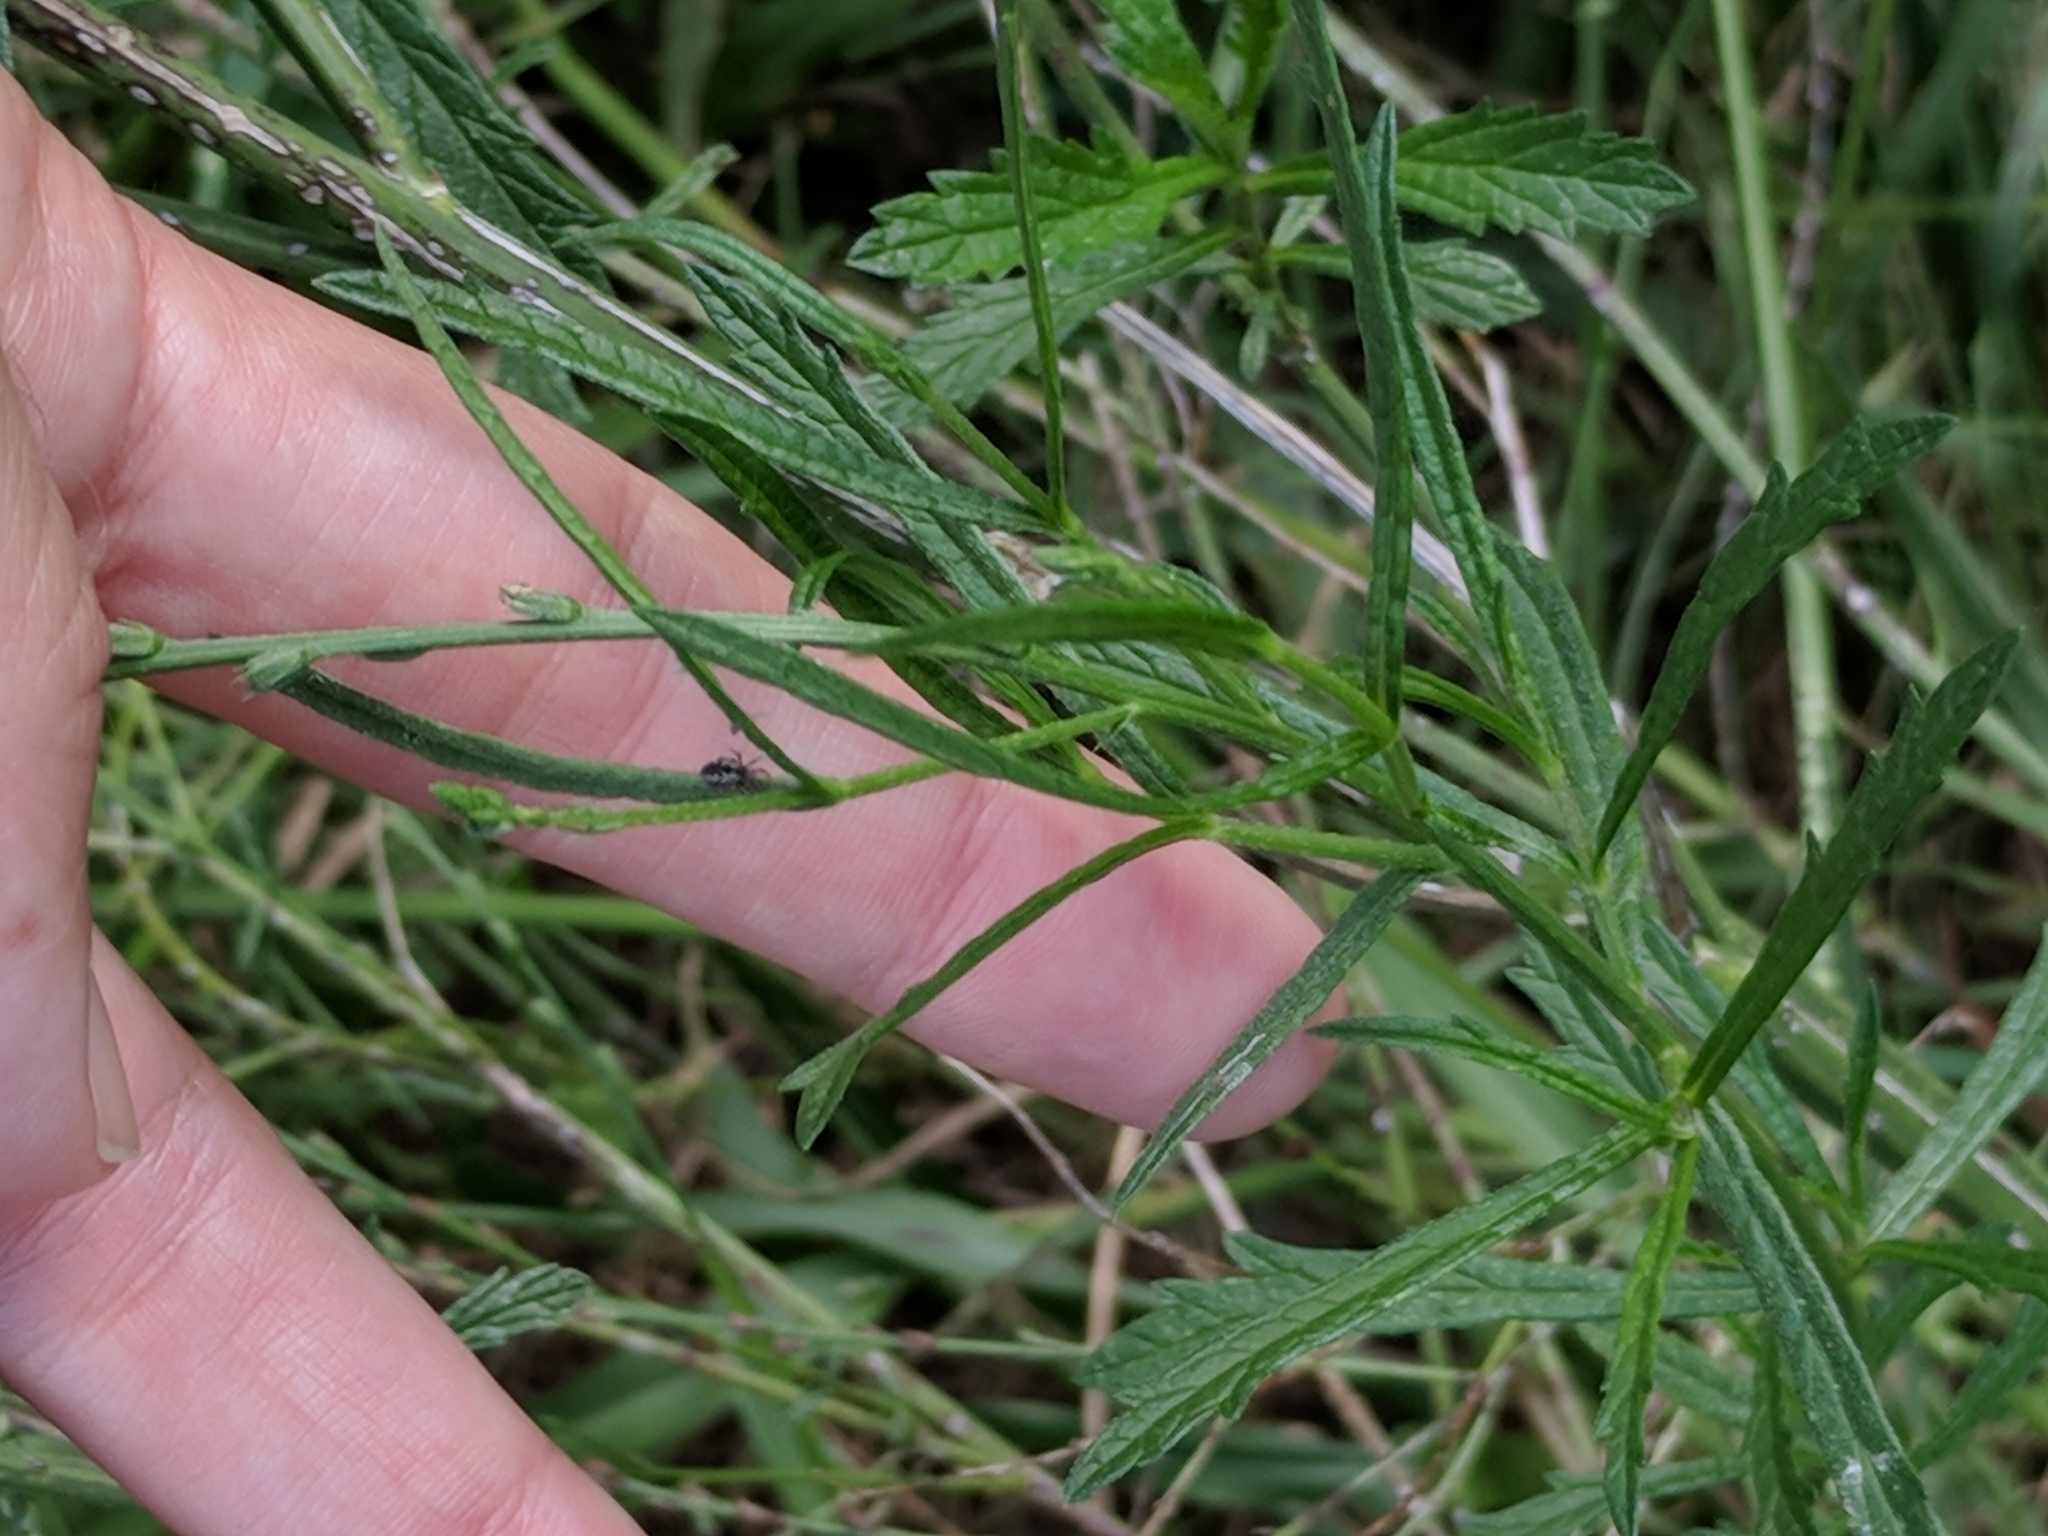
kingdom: Plantae
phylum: Tracheophyta
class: Magnoliopsida
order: Lamiales
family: Verbenaceae
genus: Verbena
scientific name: Verbena halei
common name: Texas vervain
